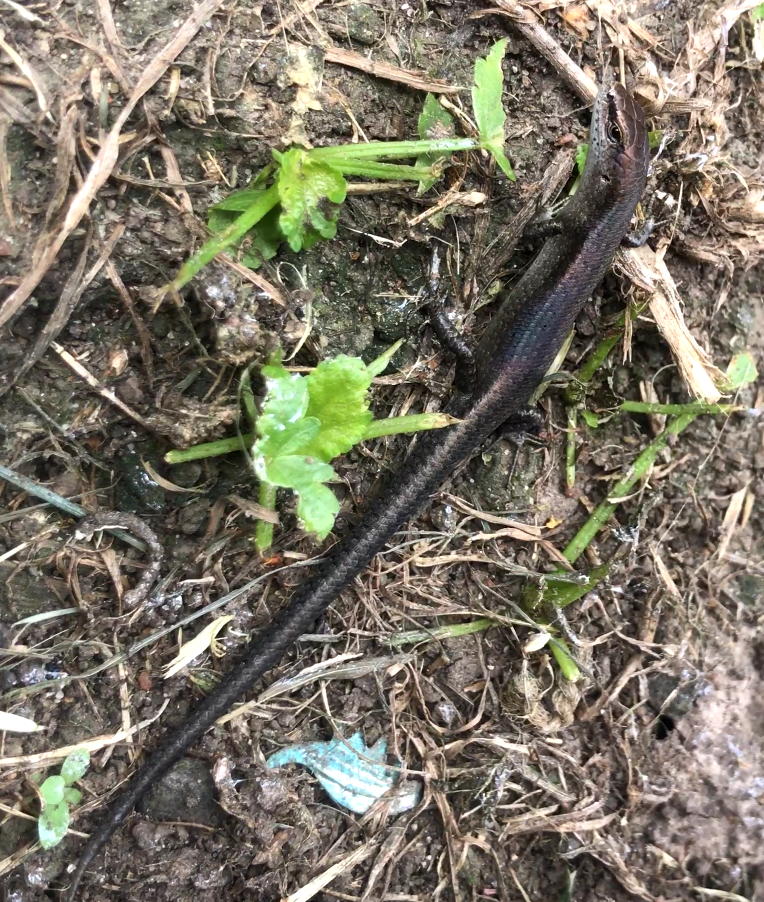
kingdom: Animalia
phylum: Chordata
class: Squamata
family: Scincidae
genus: Lampropholis
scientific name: Lampropholis guichenoti
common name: Garden skink
